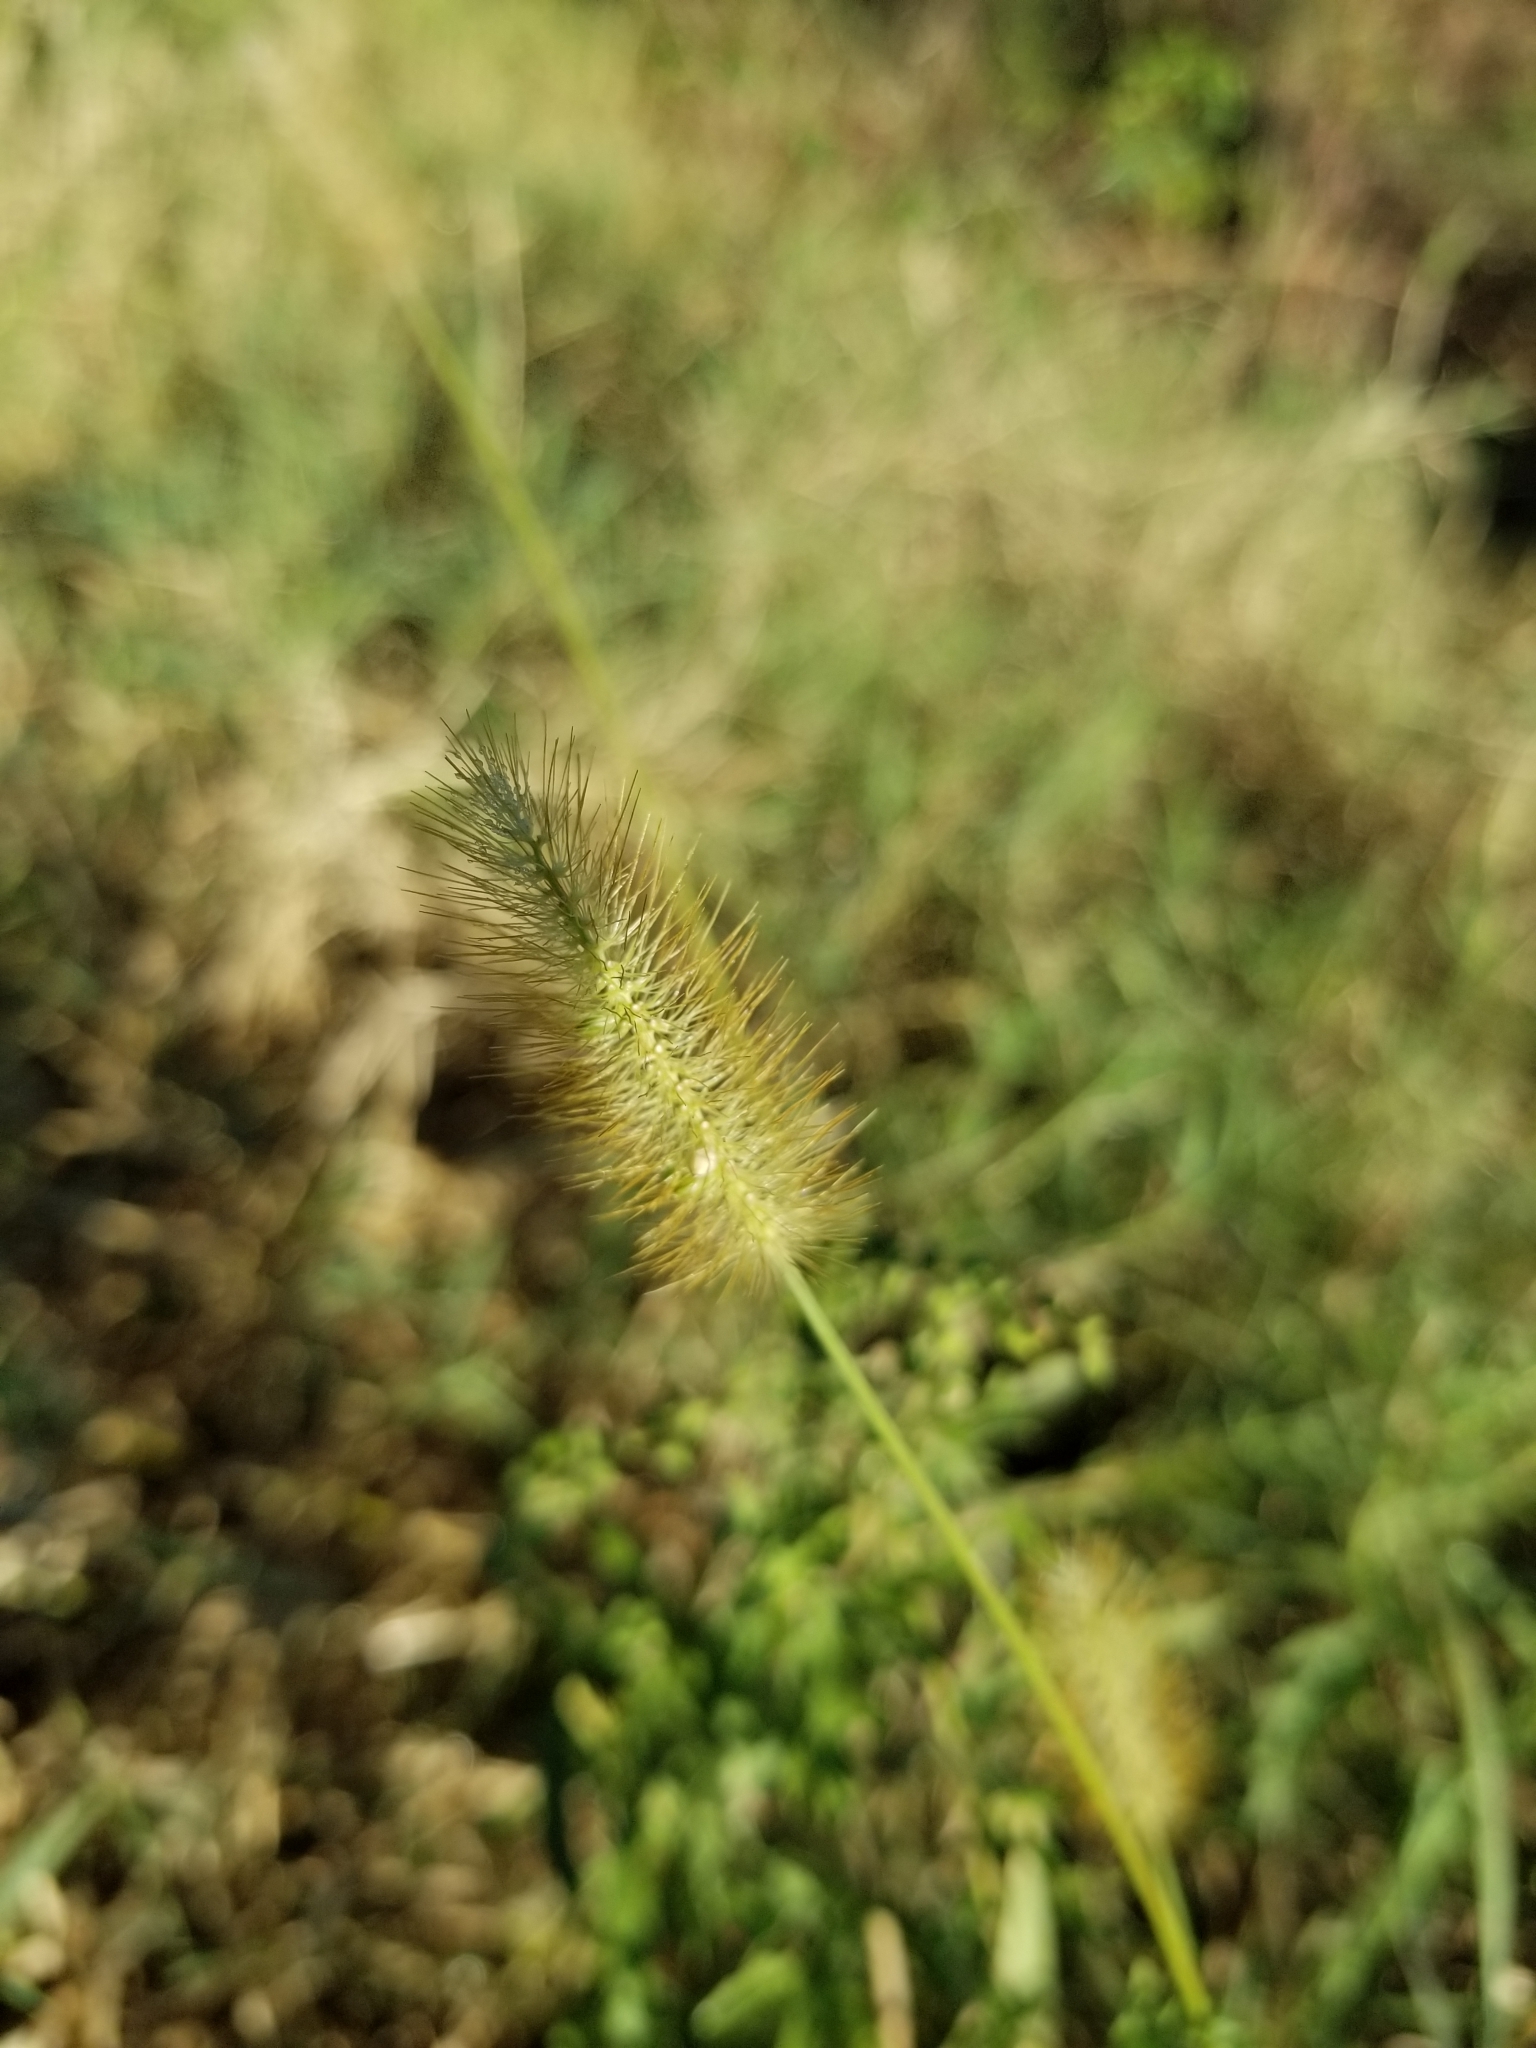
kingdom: Plantae
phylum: Tracheophyta
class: Liliopsida
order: Poales
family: Poaceae
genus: Setaria
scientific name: Setaria parviflora
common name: Knotroot bristle-grass
